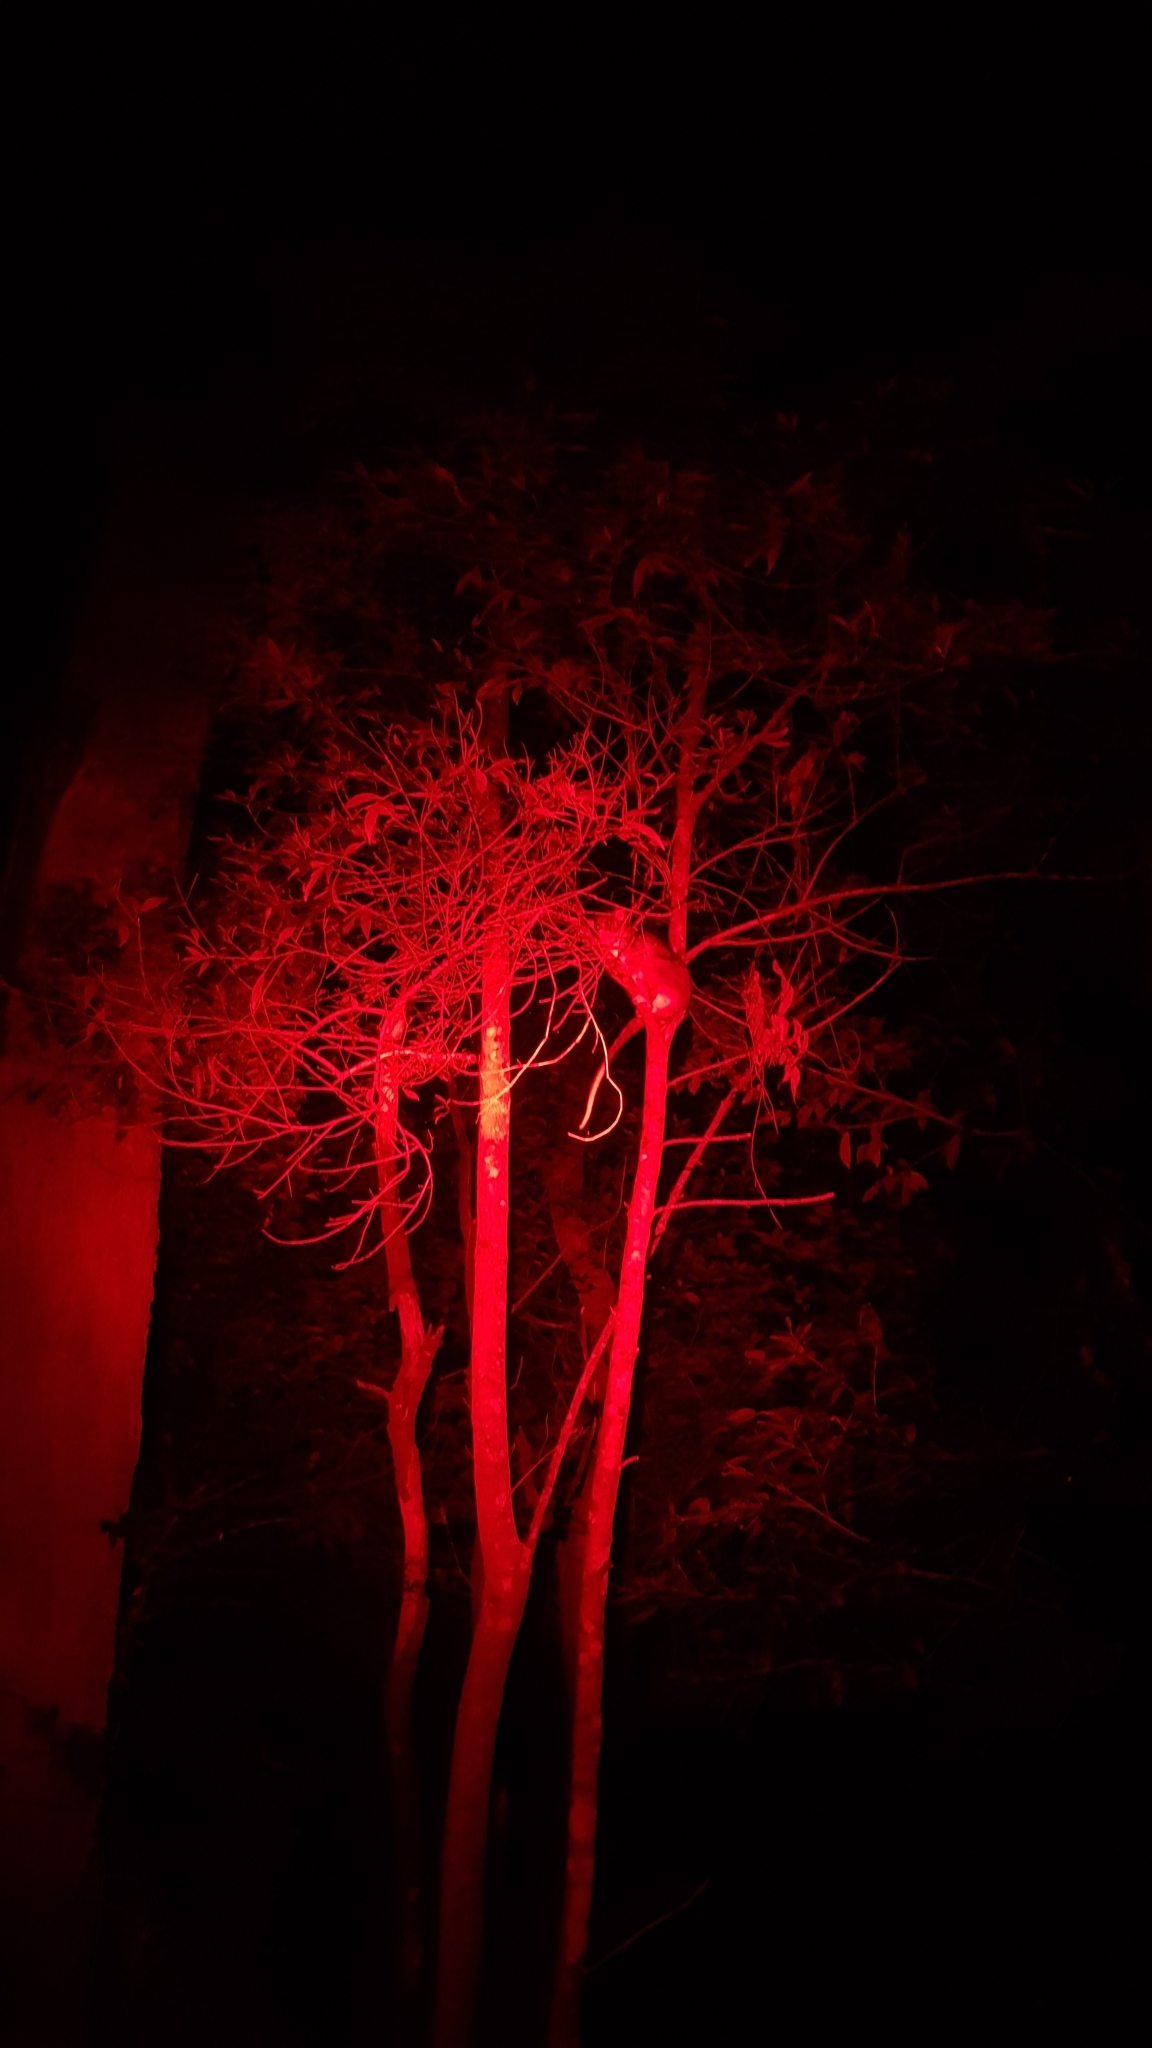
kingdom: Animalia
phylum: Chordata
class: Mammalia
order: Diprotodontia
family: Pseudocheiridae
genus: Pseudocheirus
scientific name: Pseudocheirus peregrinus
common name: Common ringtail possum
